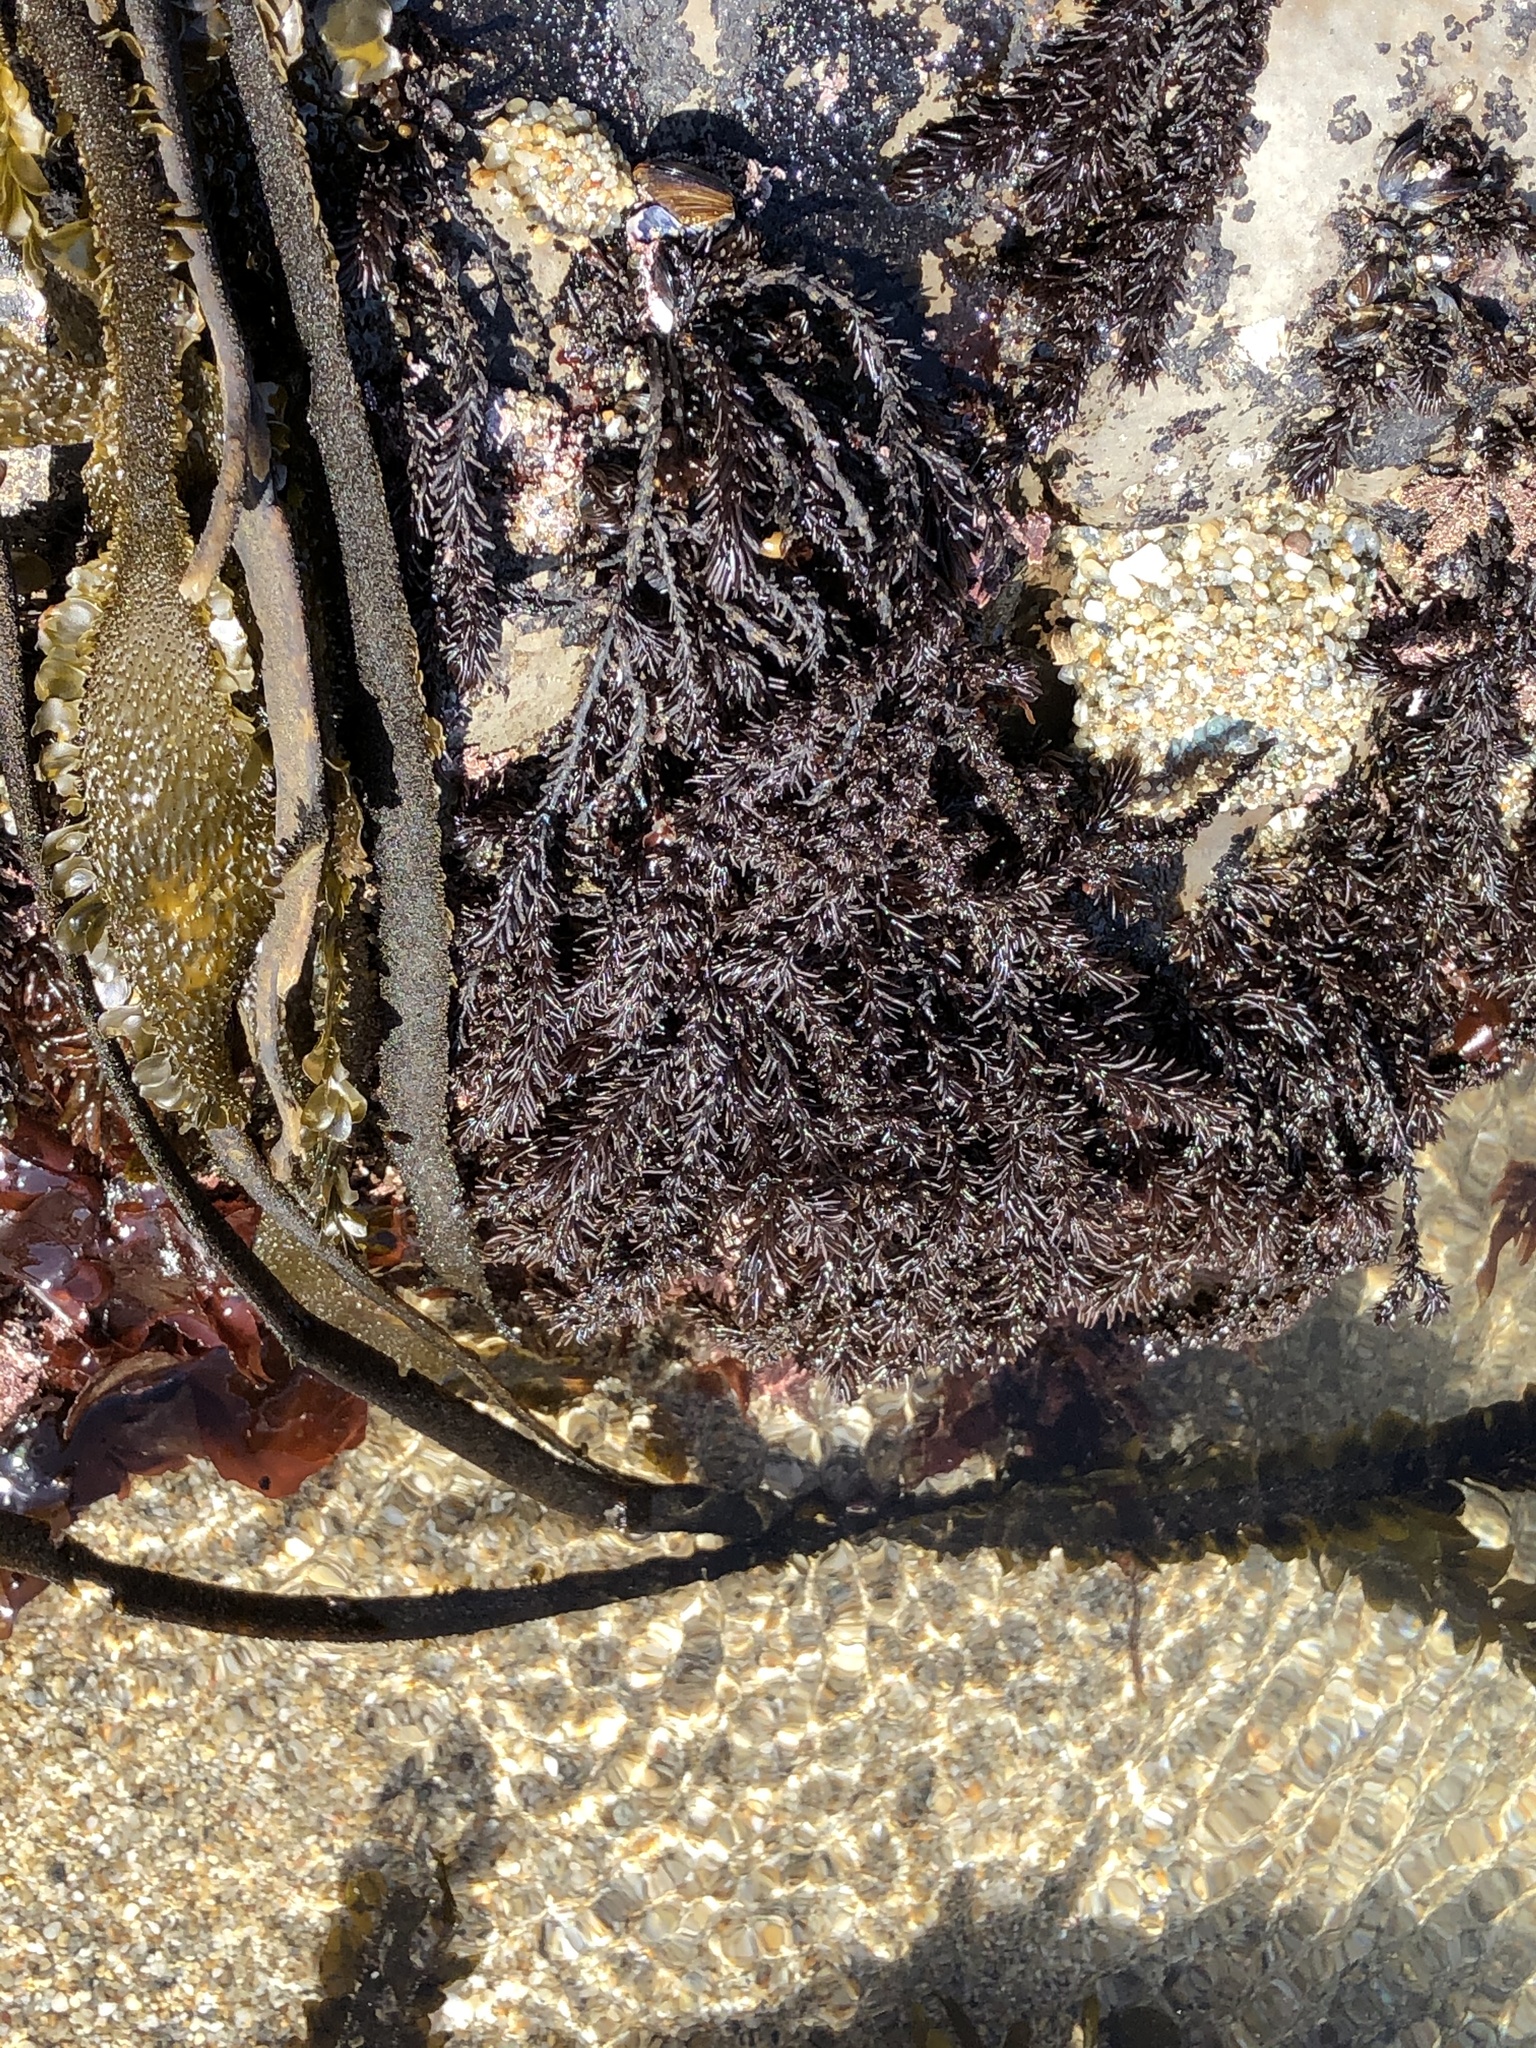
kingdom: Plantae
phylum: Rhodophyta
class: Florideophyceae
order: Ceramiales
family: Rhodomelaceae
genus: Neorhodomela
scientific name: Neorhodomela larix
